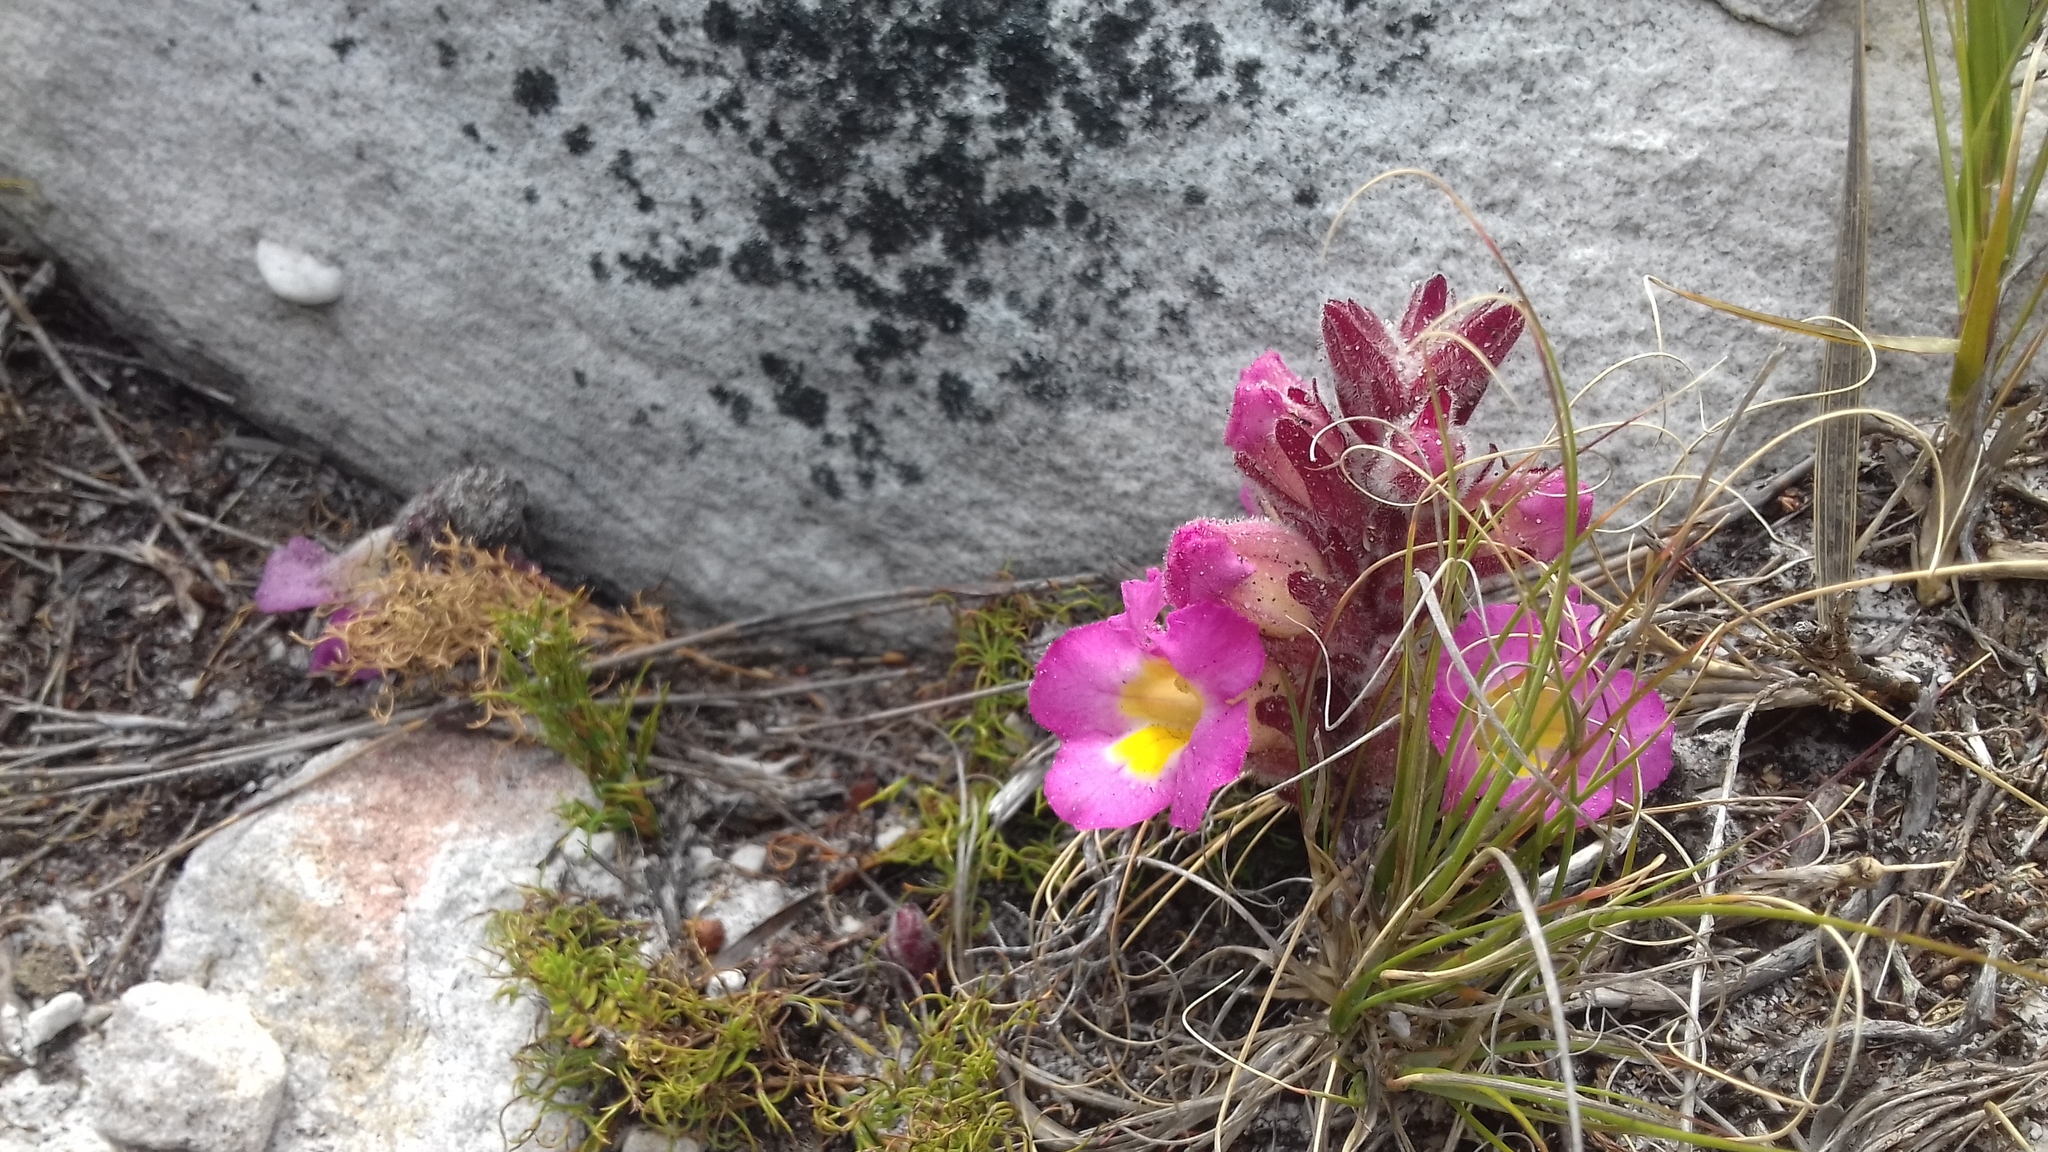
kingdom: Plantae
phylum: Tracheophyta
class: Magnoliopsida
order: Lamiales
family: Orobanchaceae
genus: Harveya
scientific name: Harveya purpurea
